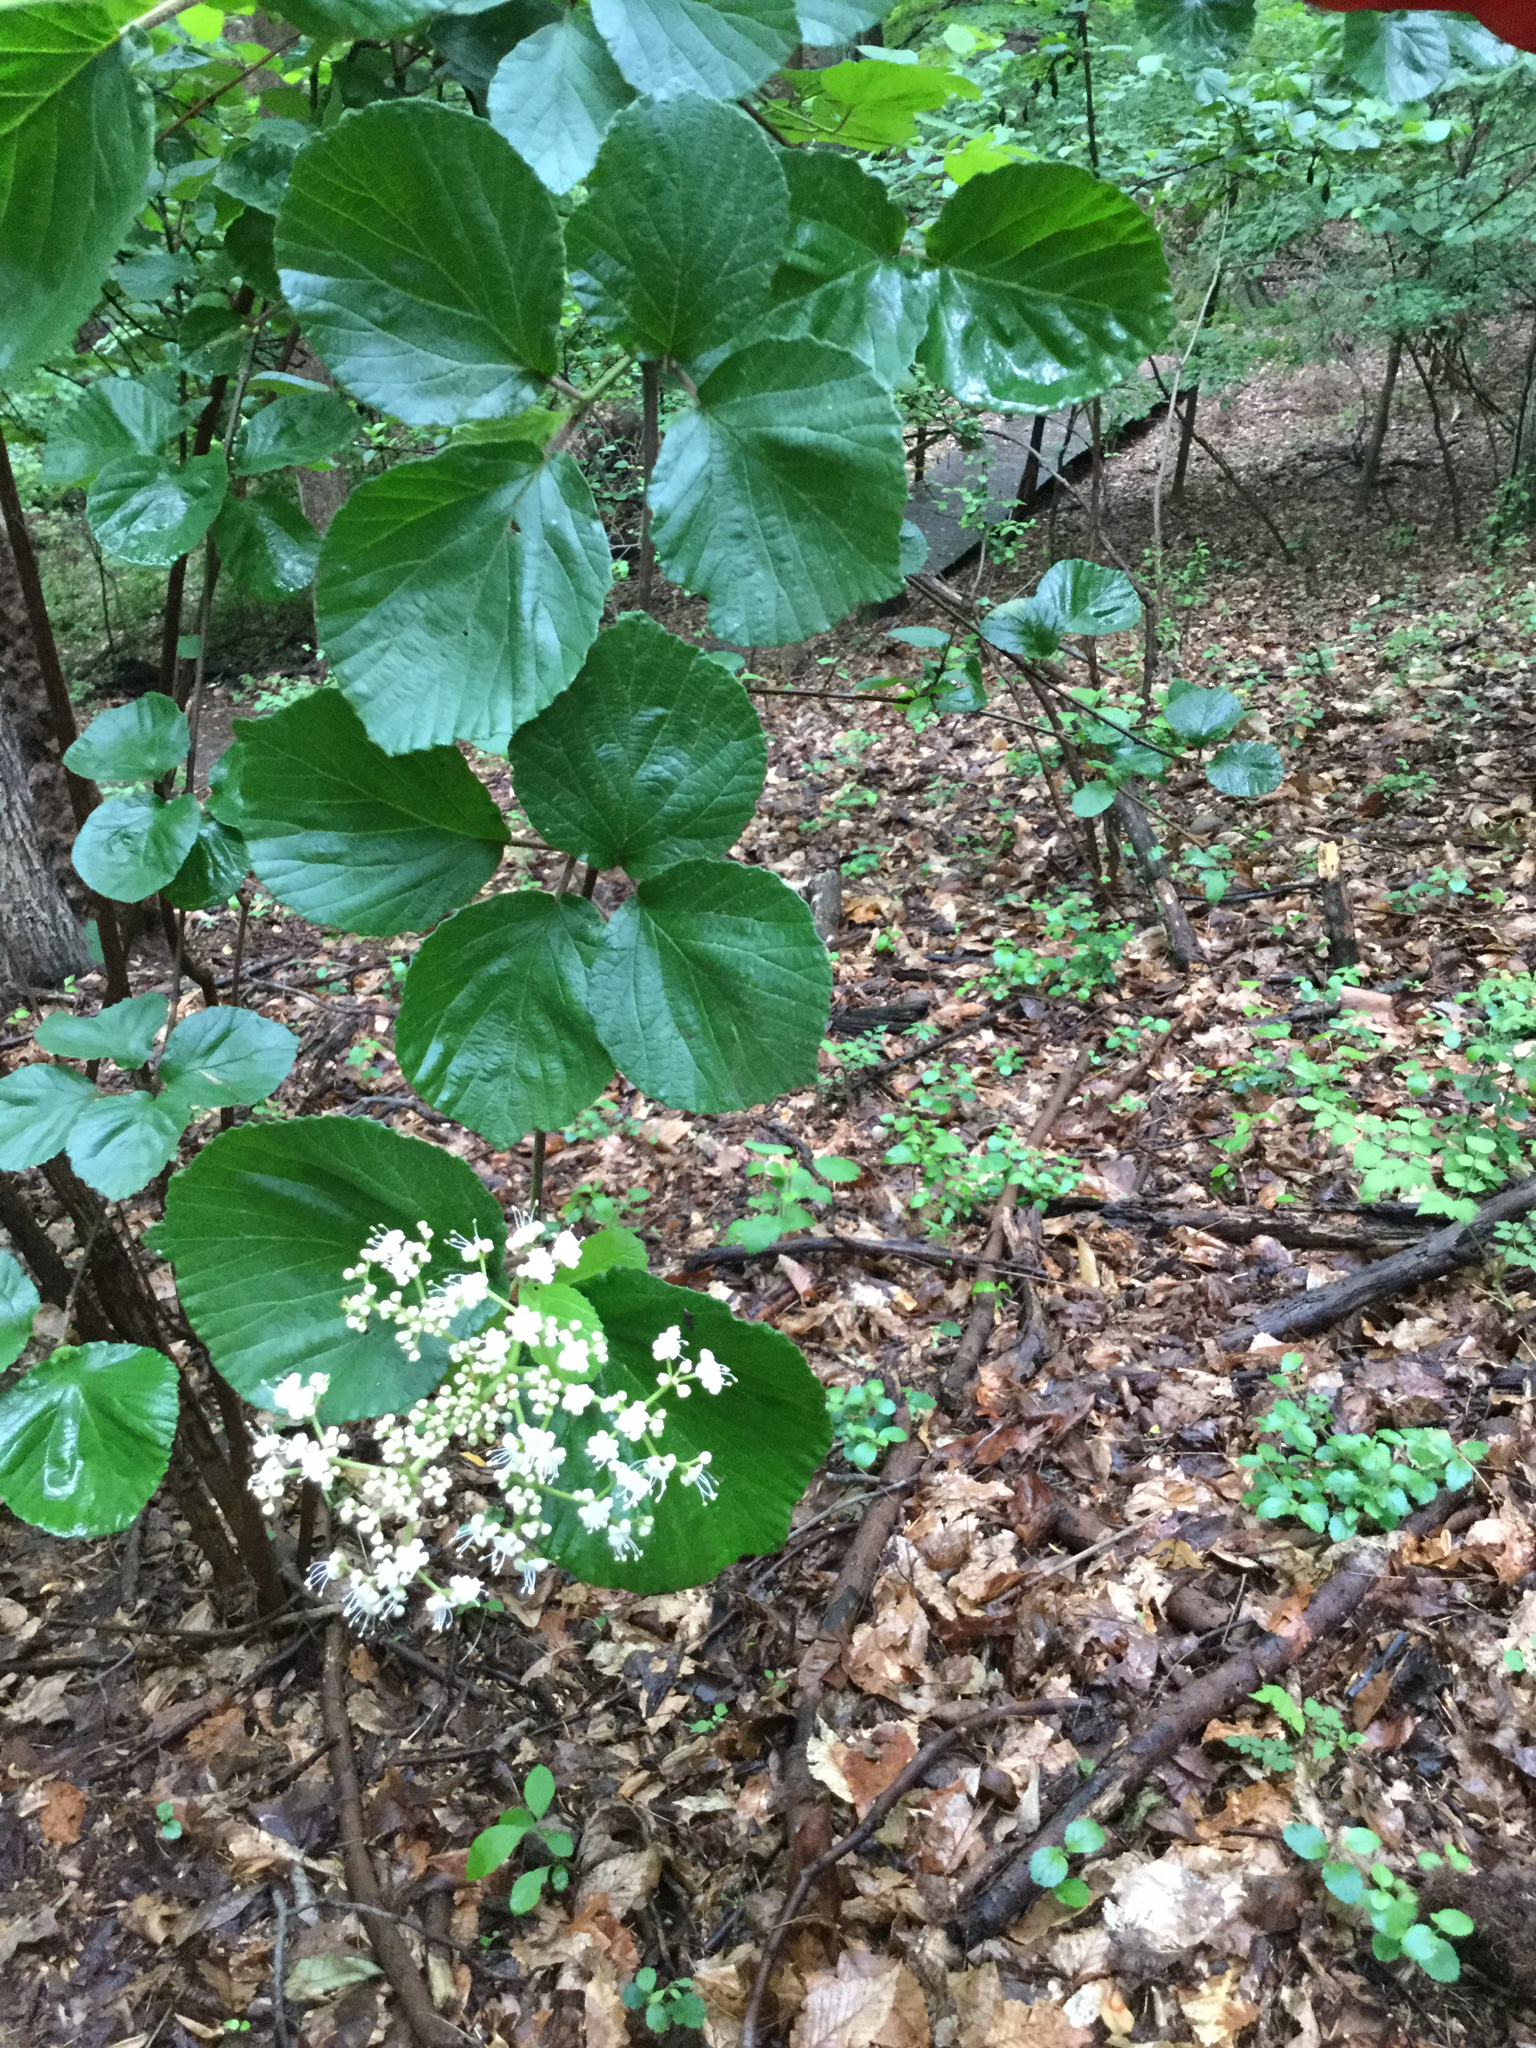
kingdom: Plantae
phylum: Tracheophyta
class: Magnoliopsida
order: Dipsacales
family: Viburnaceae
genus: Viburnum
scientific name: Viburnum dilatatum
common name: Linden arrowwood
